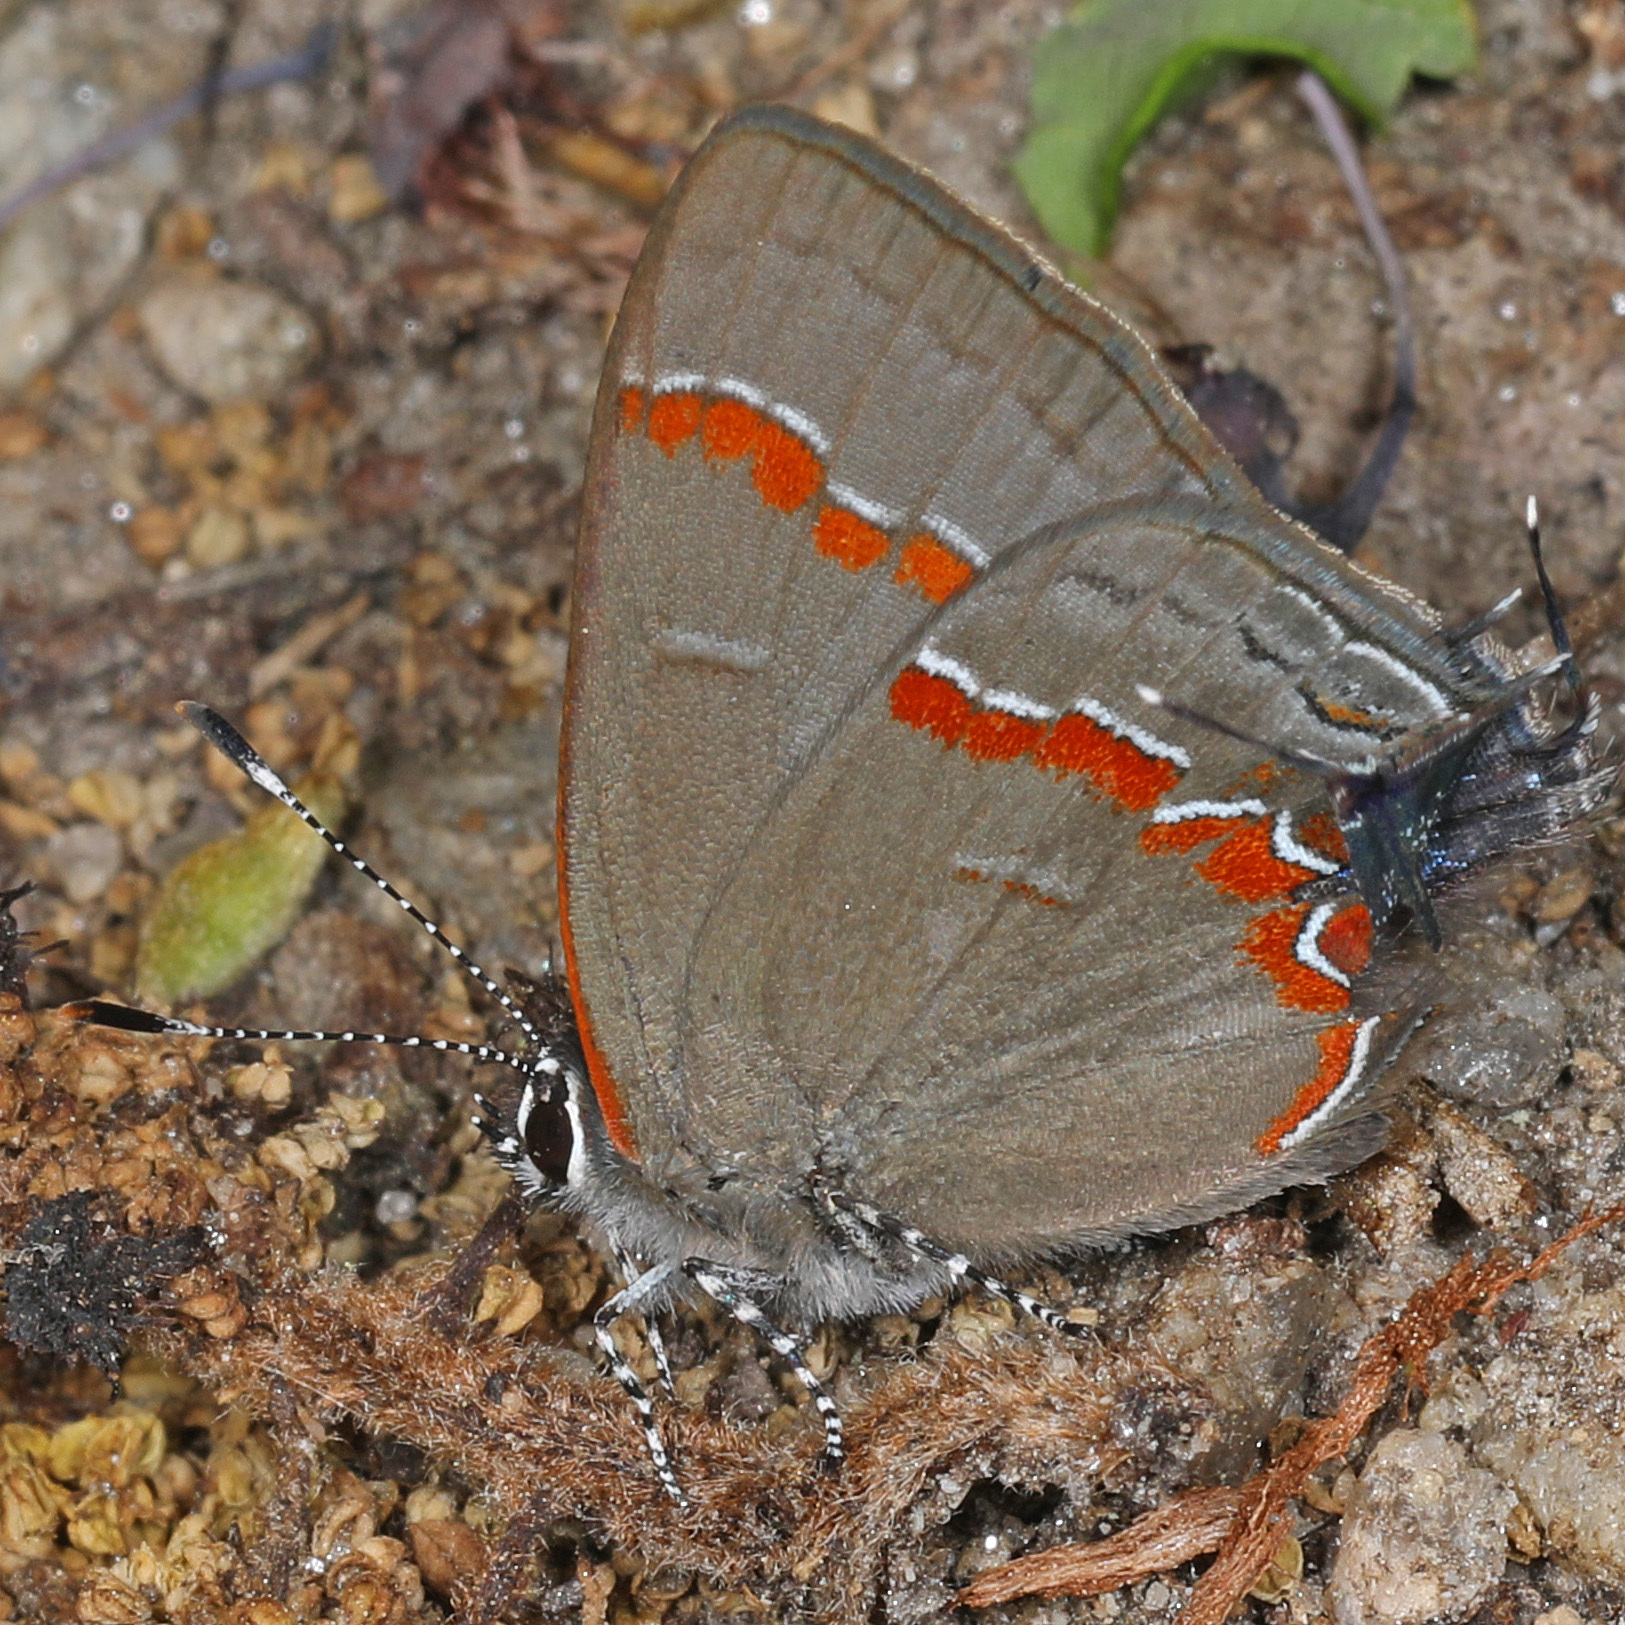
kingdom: Animalia
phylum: Arthropoda
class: Insecta
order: Lepidoptera
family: Lycaenidae
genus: Calycopis
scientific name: Calycopis cecrops
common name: Red-banded hairstreak
